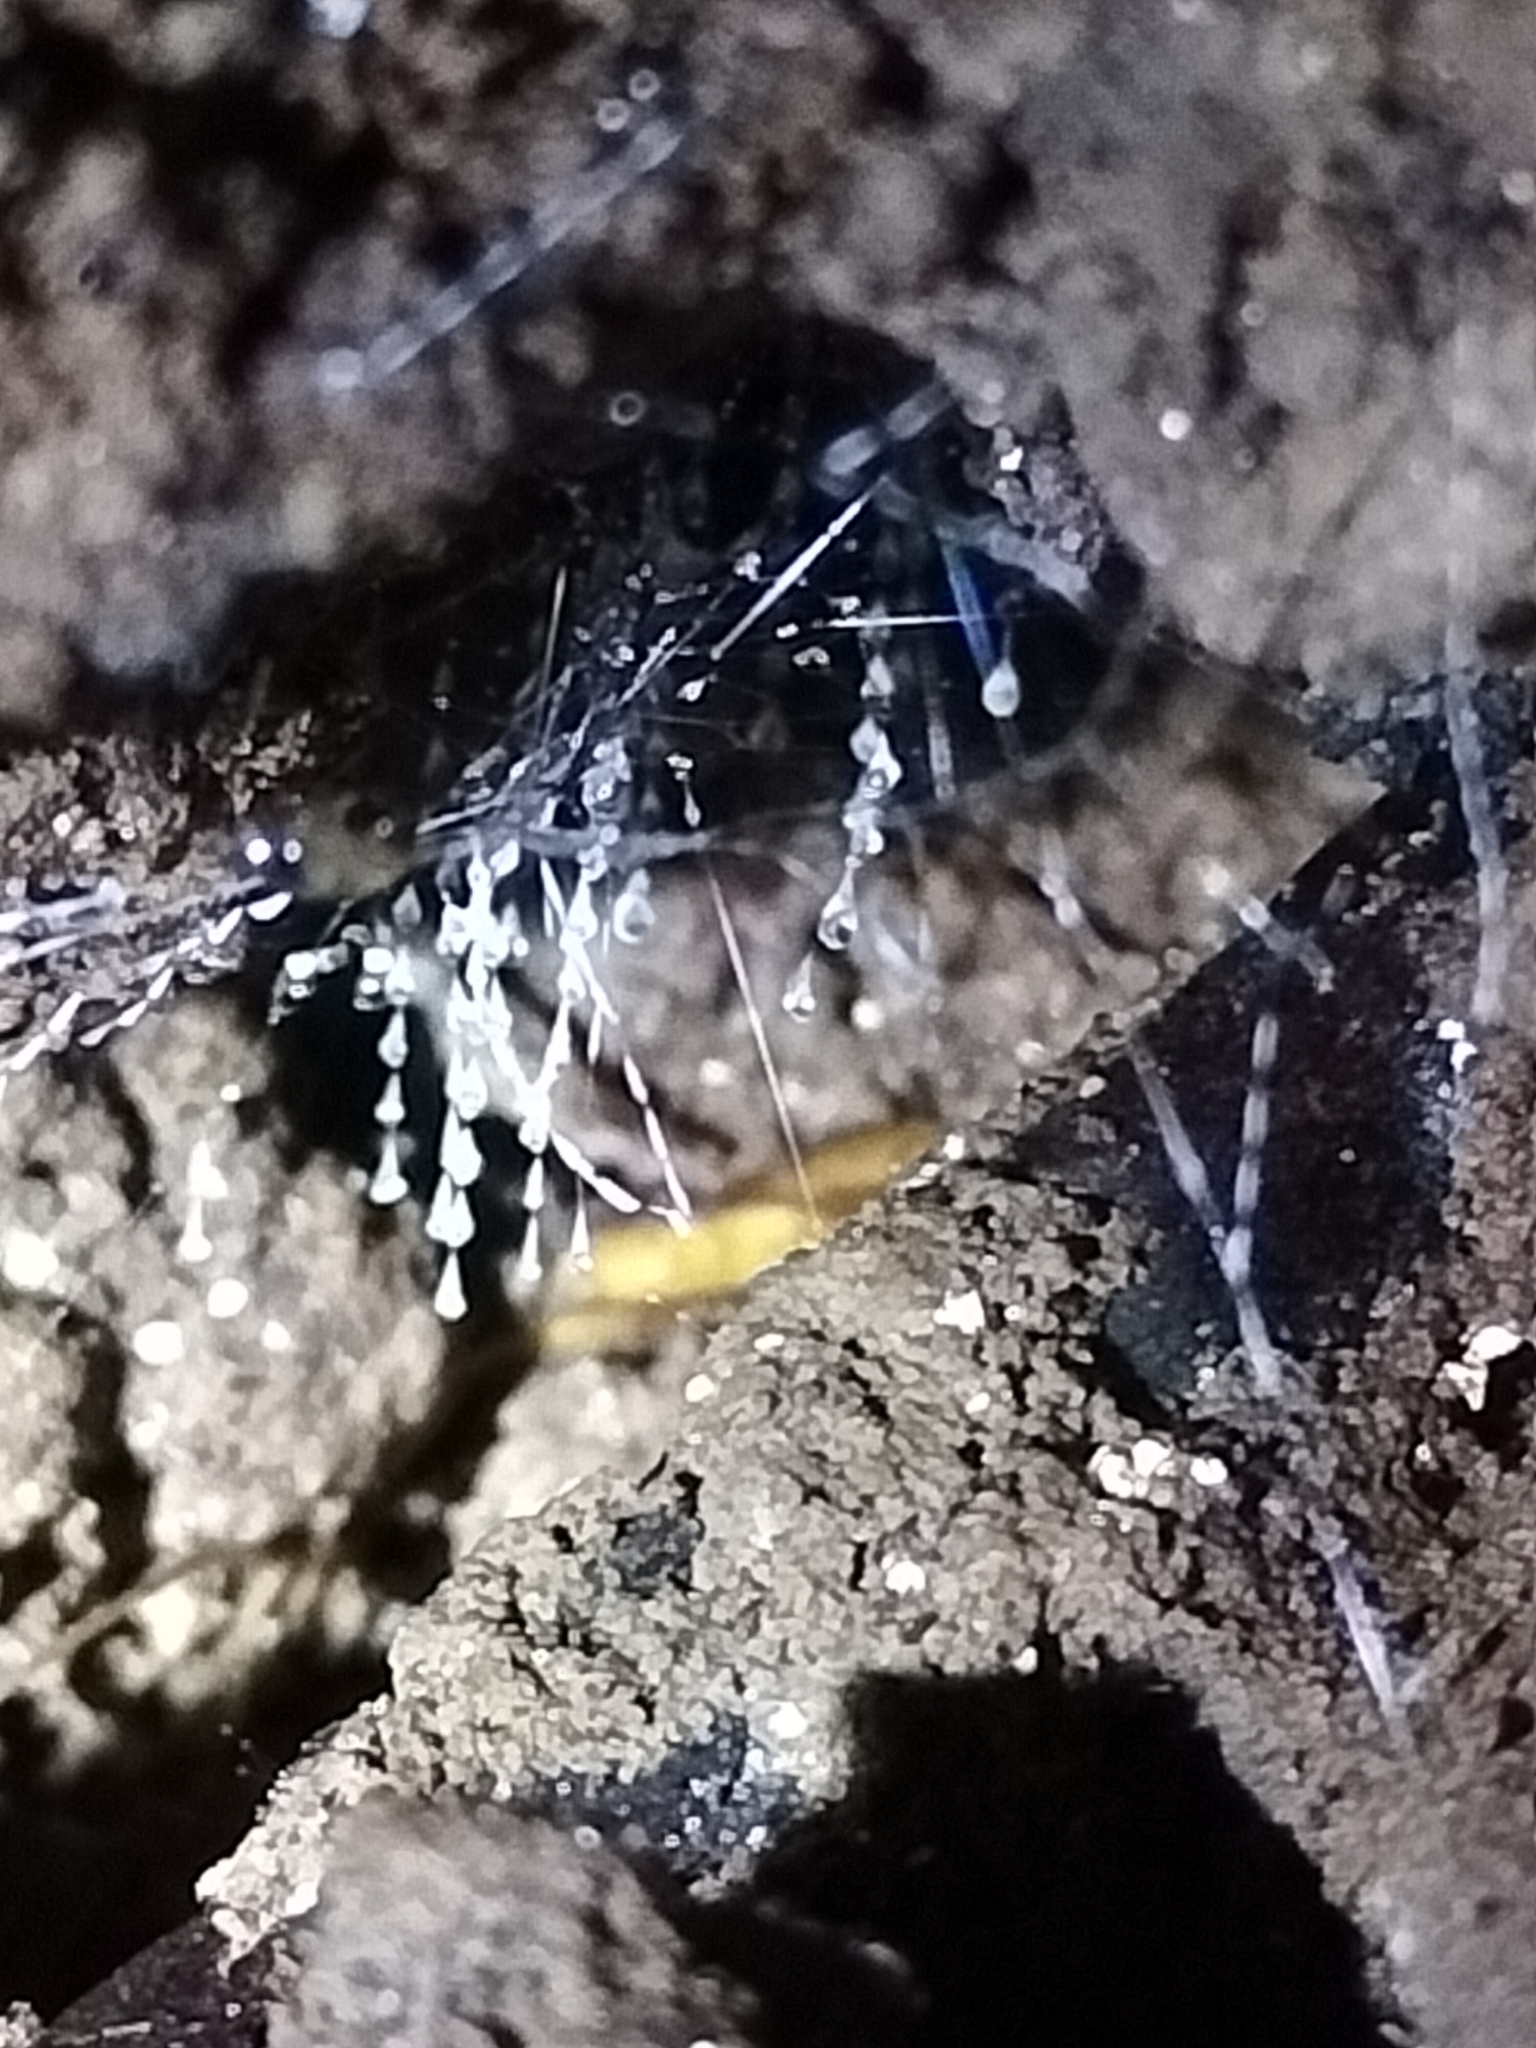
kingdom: Animalia
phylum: Arthropoda
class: Insecta
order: Diptera
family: Keroplatidae
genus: Arachnocampa
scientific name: Arachnocampa luminosa
